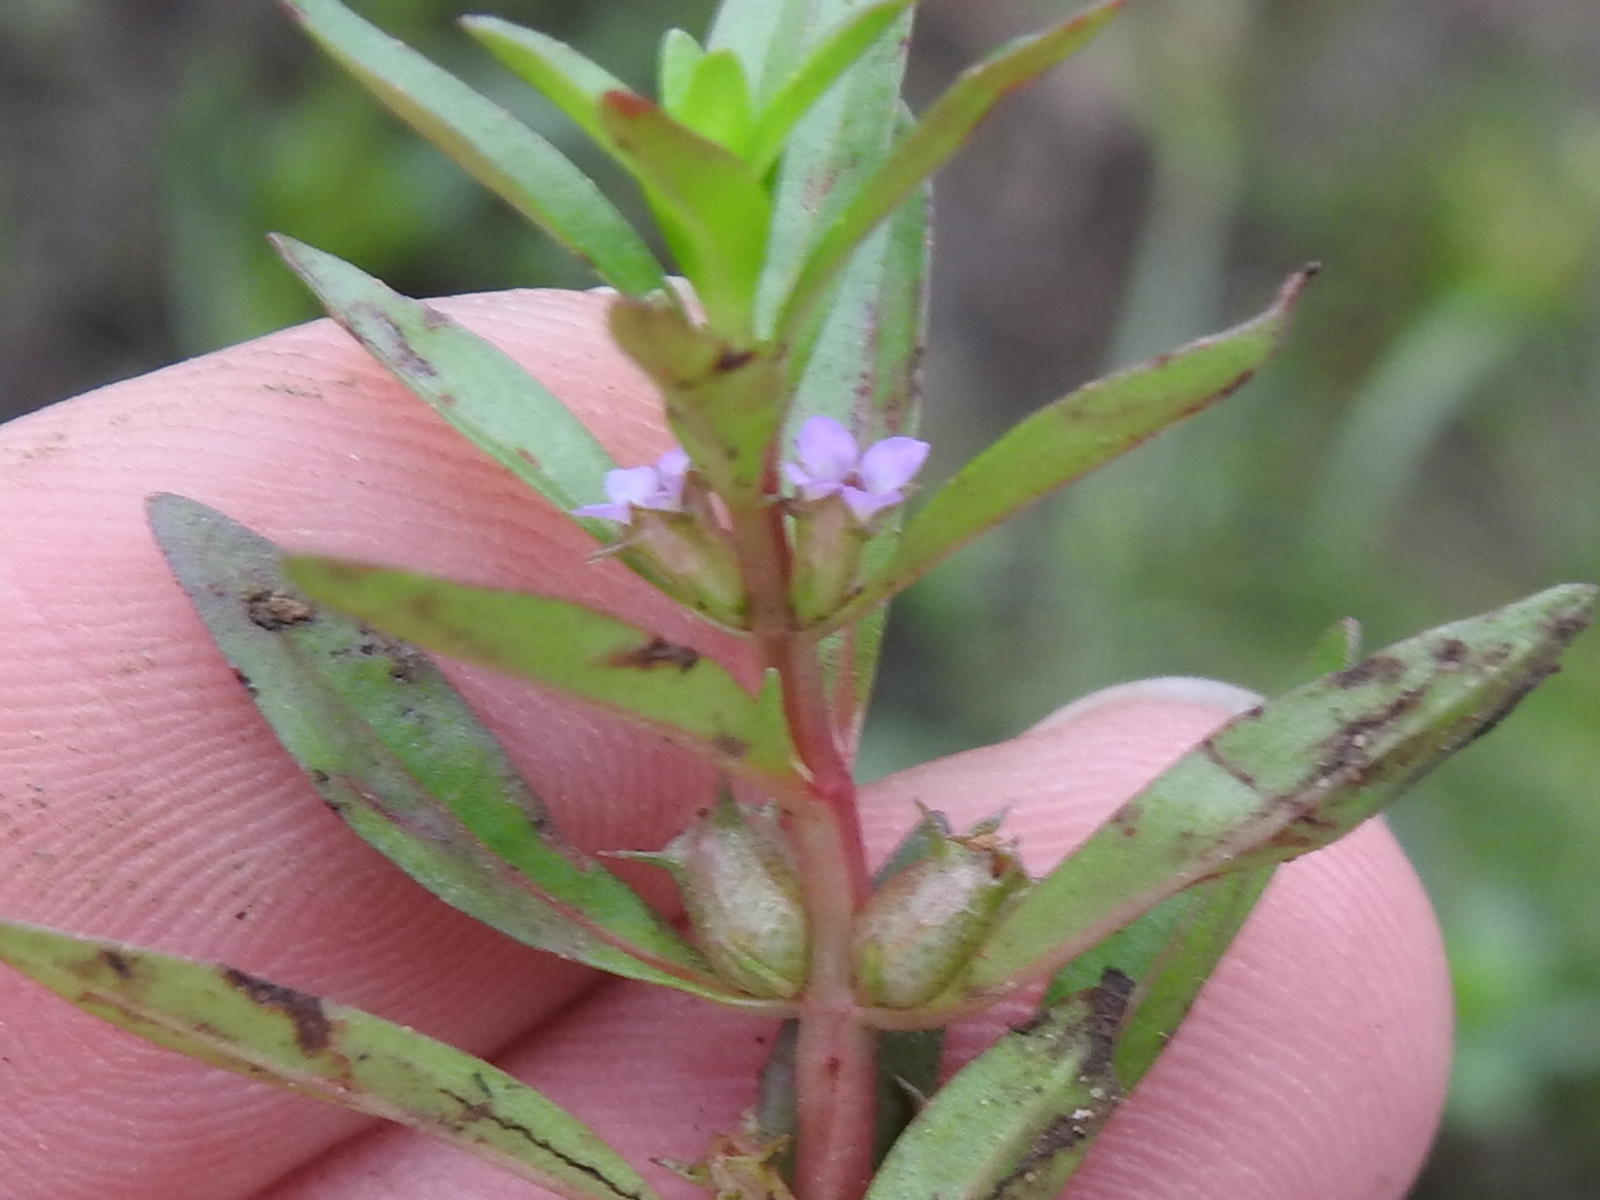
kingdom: Plantae
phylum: Tracheophyta
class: Magnoliopsida
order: Myrtales
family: Lythraceae
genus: Rotala
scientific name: Rotala ramosior
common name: Lowland rotala
